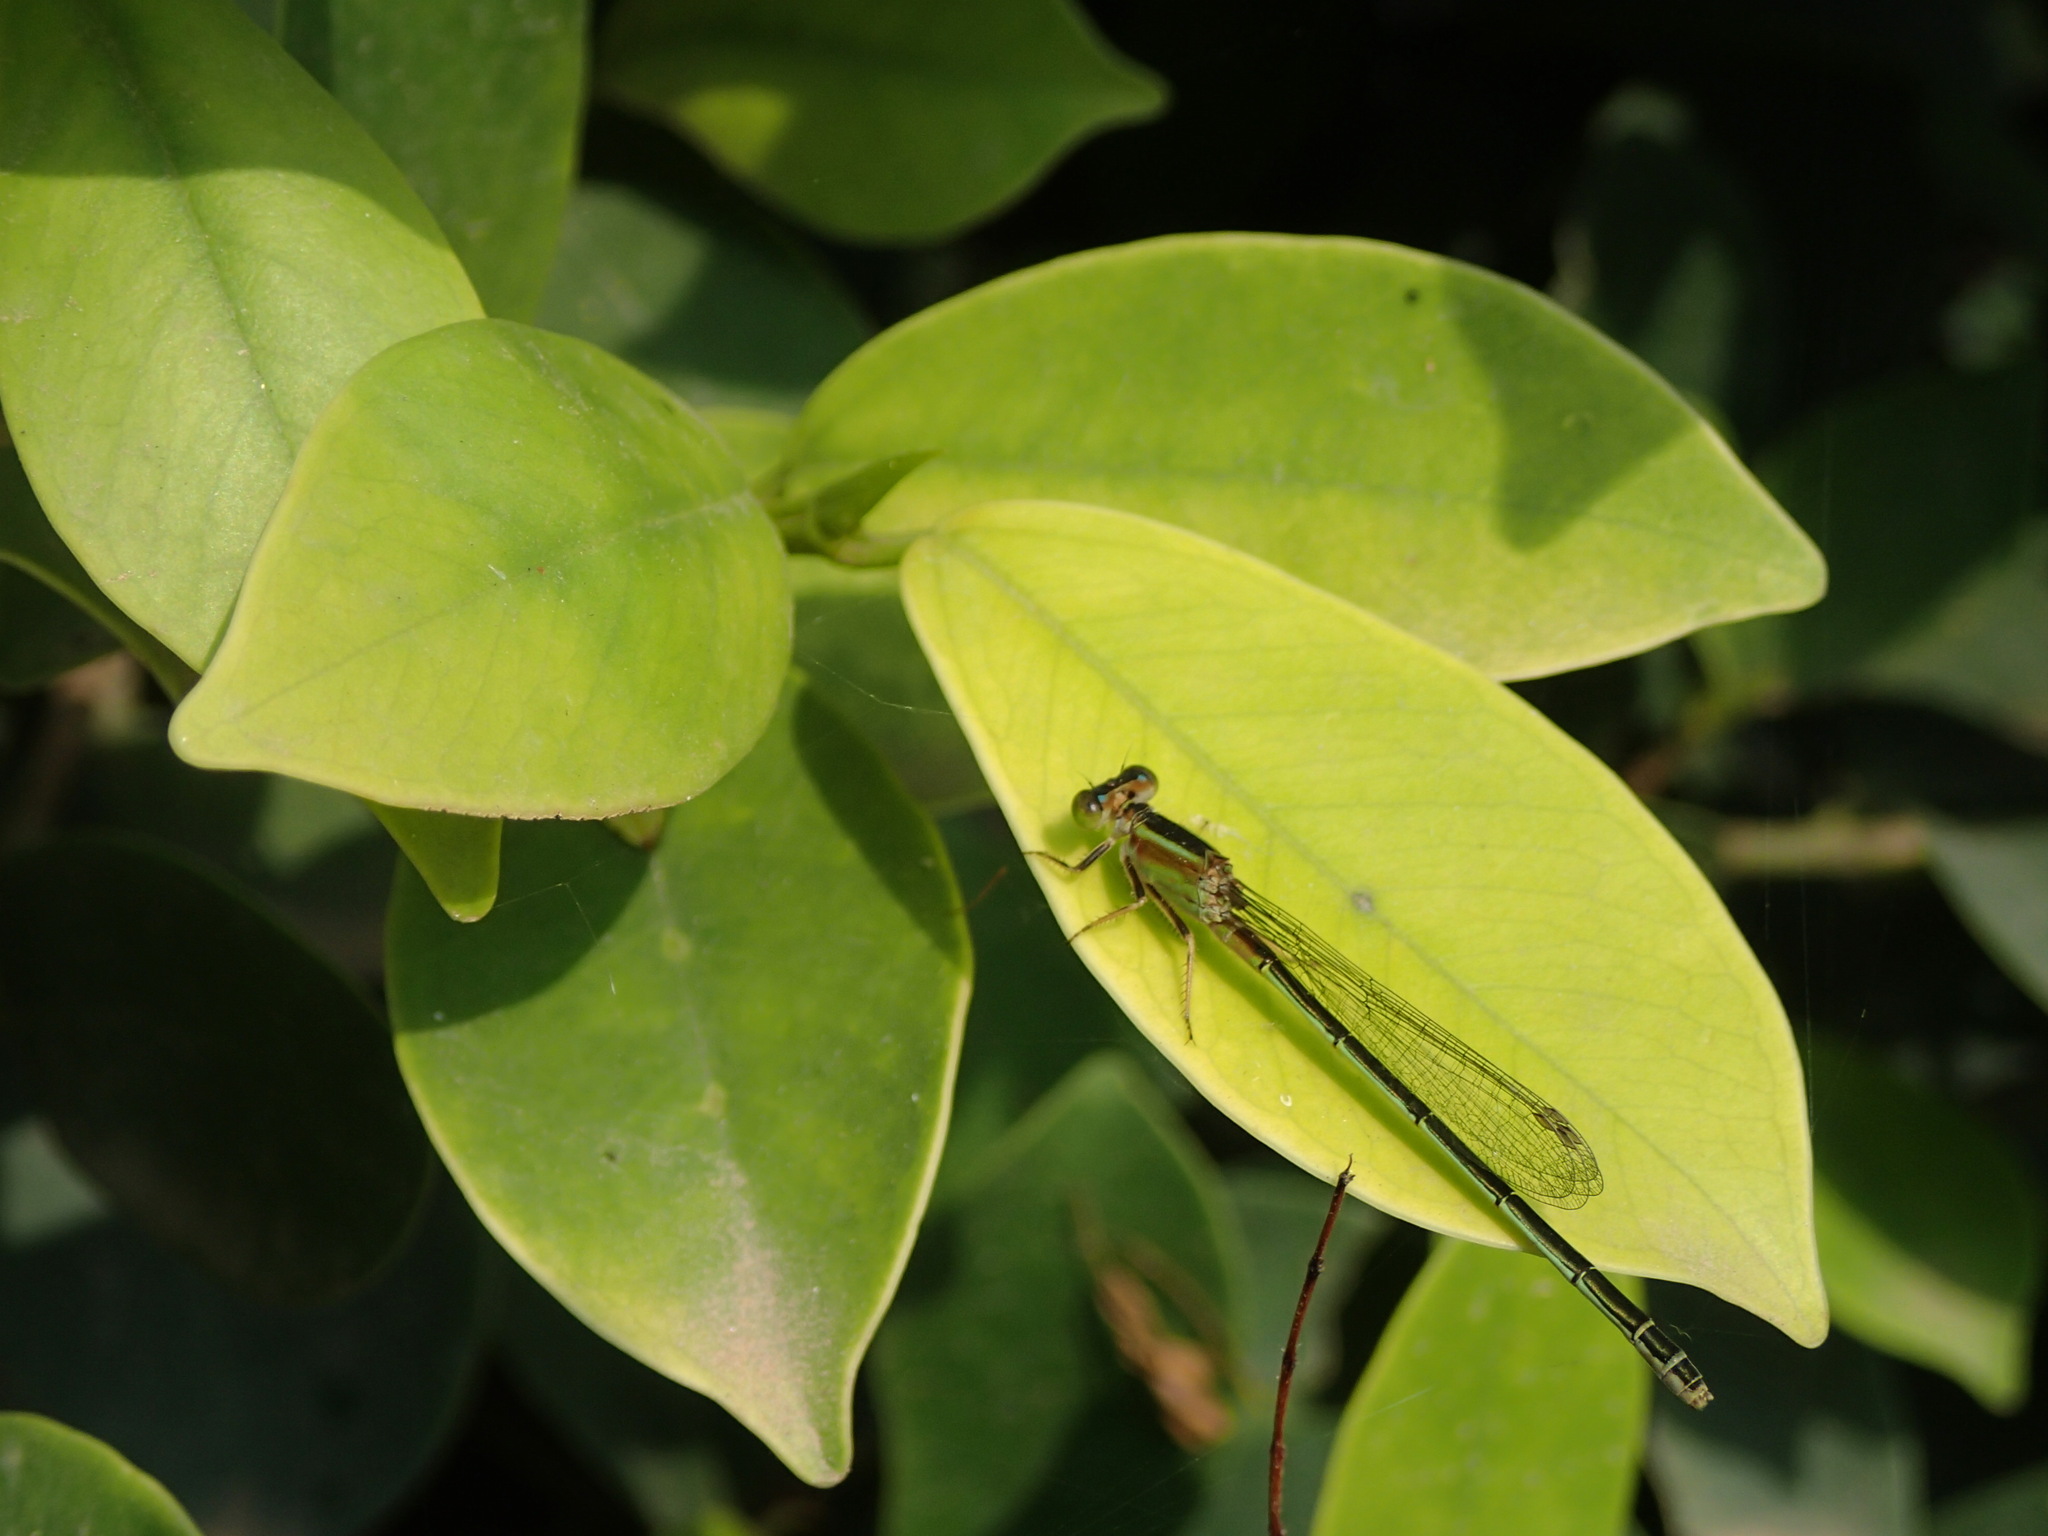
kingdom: Animalia
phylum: Arthropoda
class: Insecta
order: Odonata
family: Coenagrionidae
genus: Ischnura
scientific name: Ischnura senegalensis
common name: Tropical bluetail
